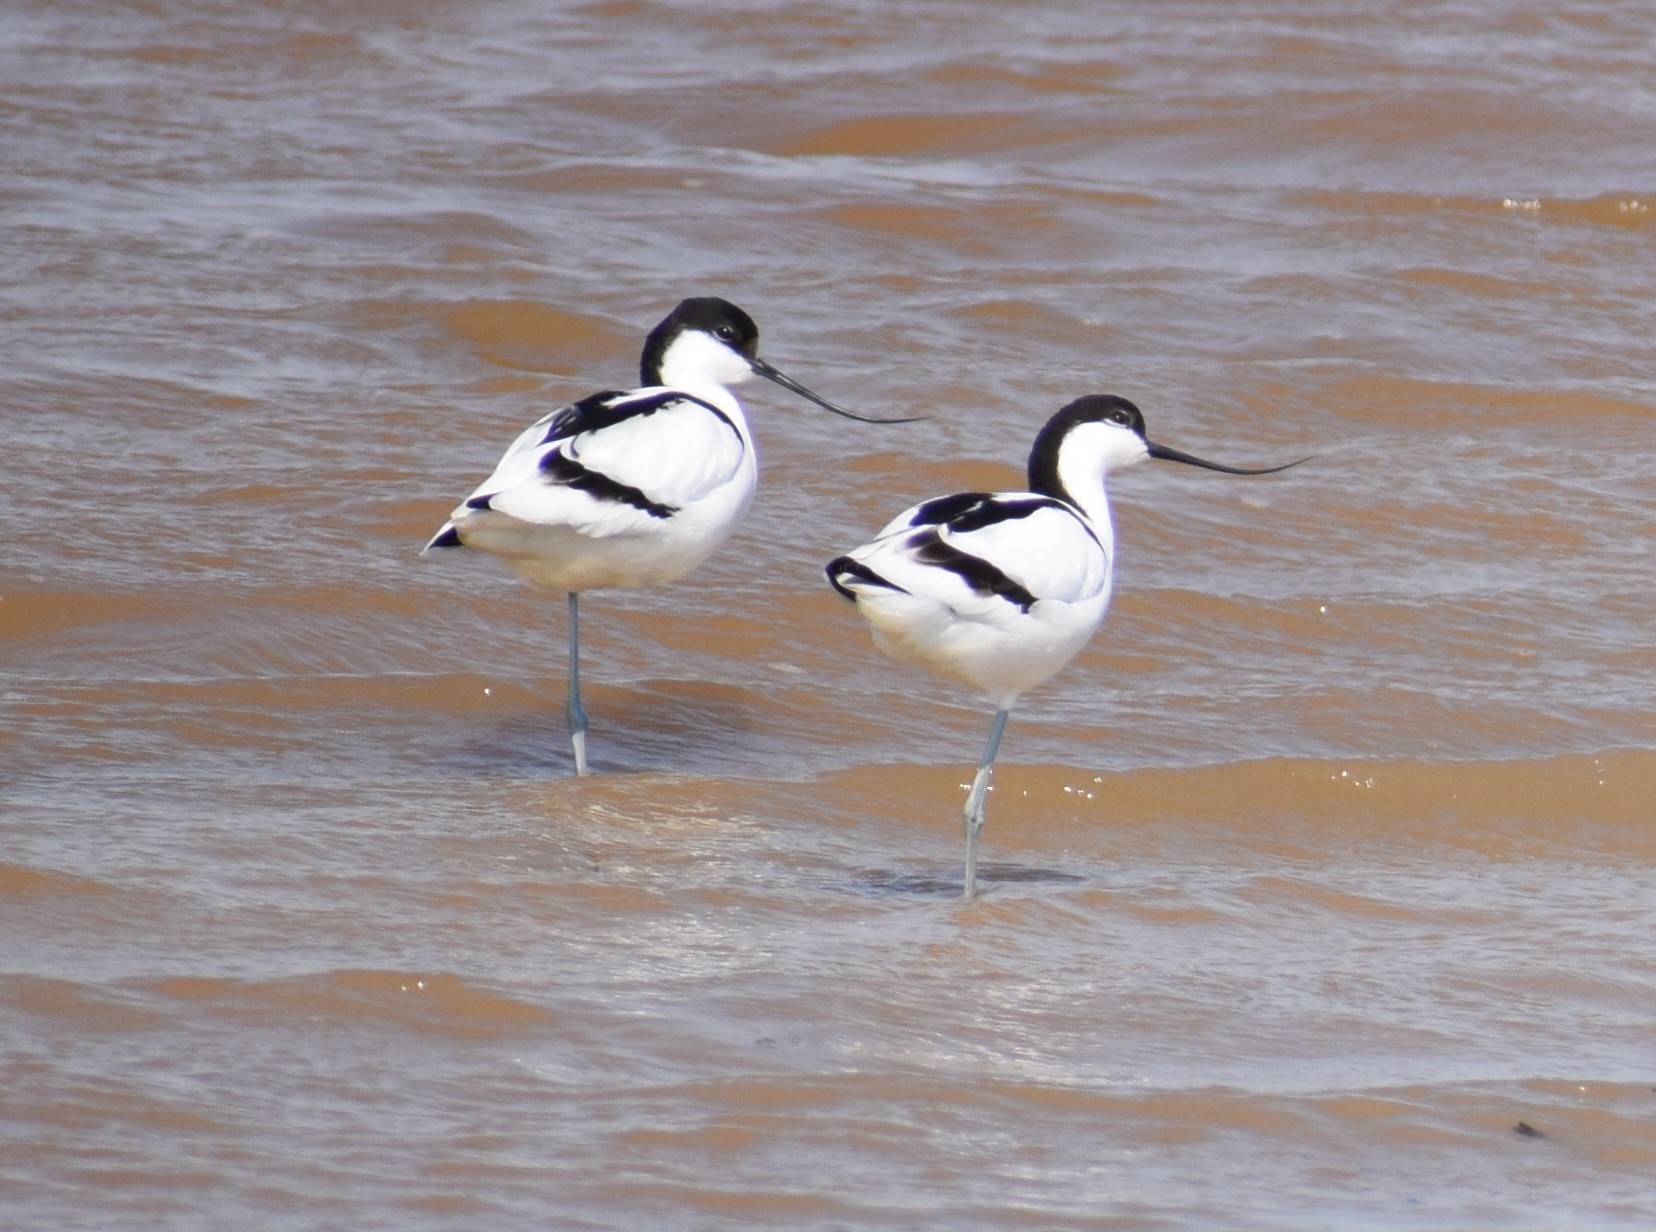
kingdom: Animalia
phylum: Chordata
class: Aves
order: Charadriiformes
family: Recurvirostridae
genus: Recurvirostra
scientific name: Recurvirostra avosetta
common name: Pied avocet
